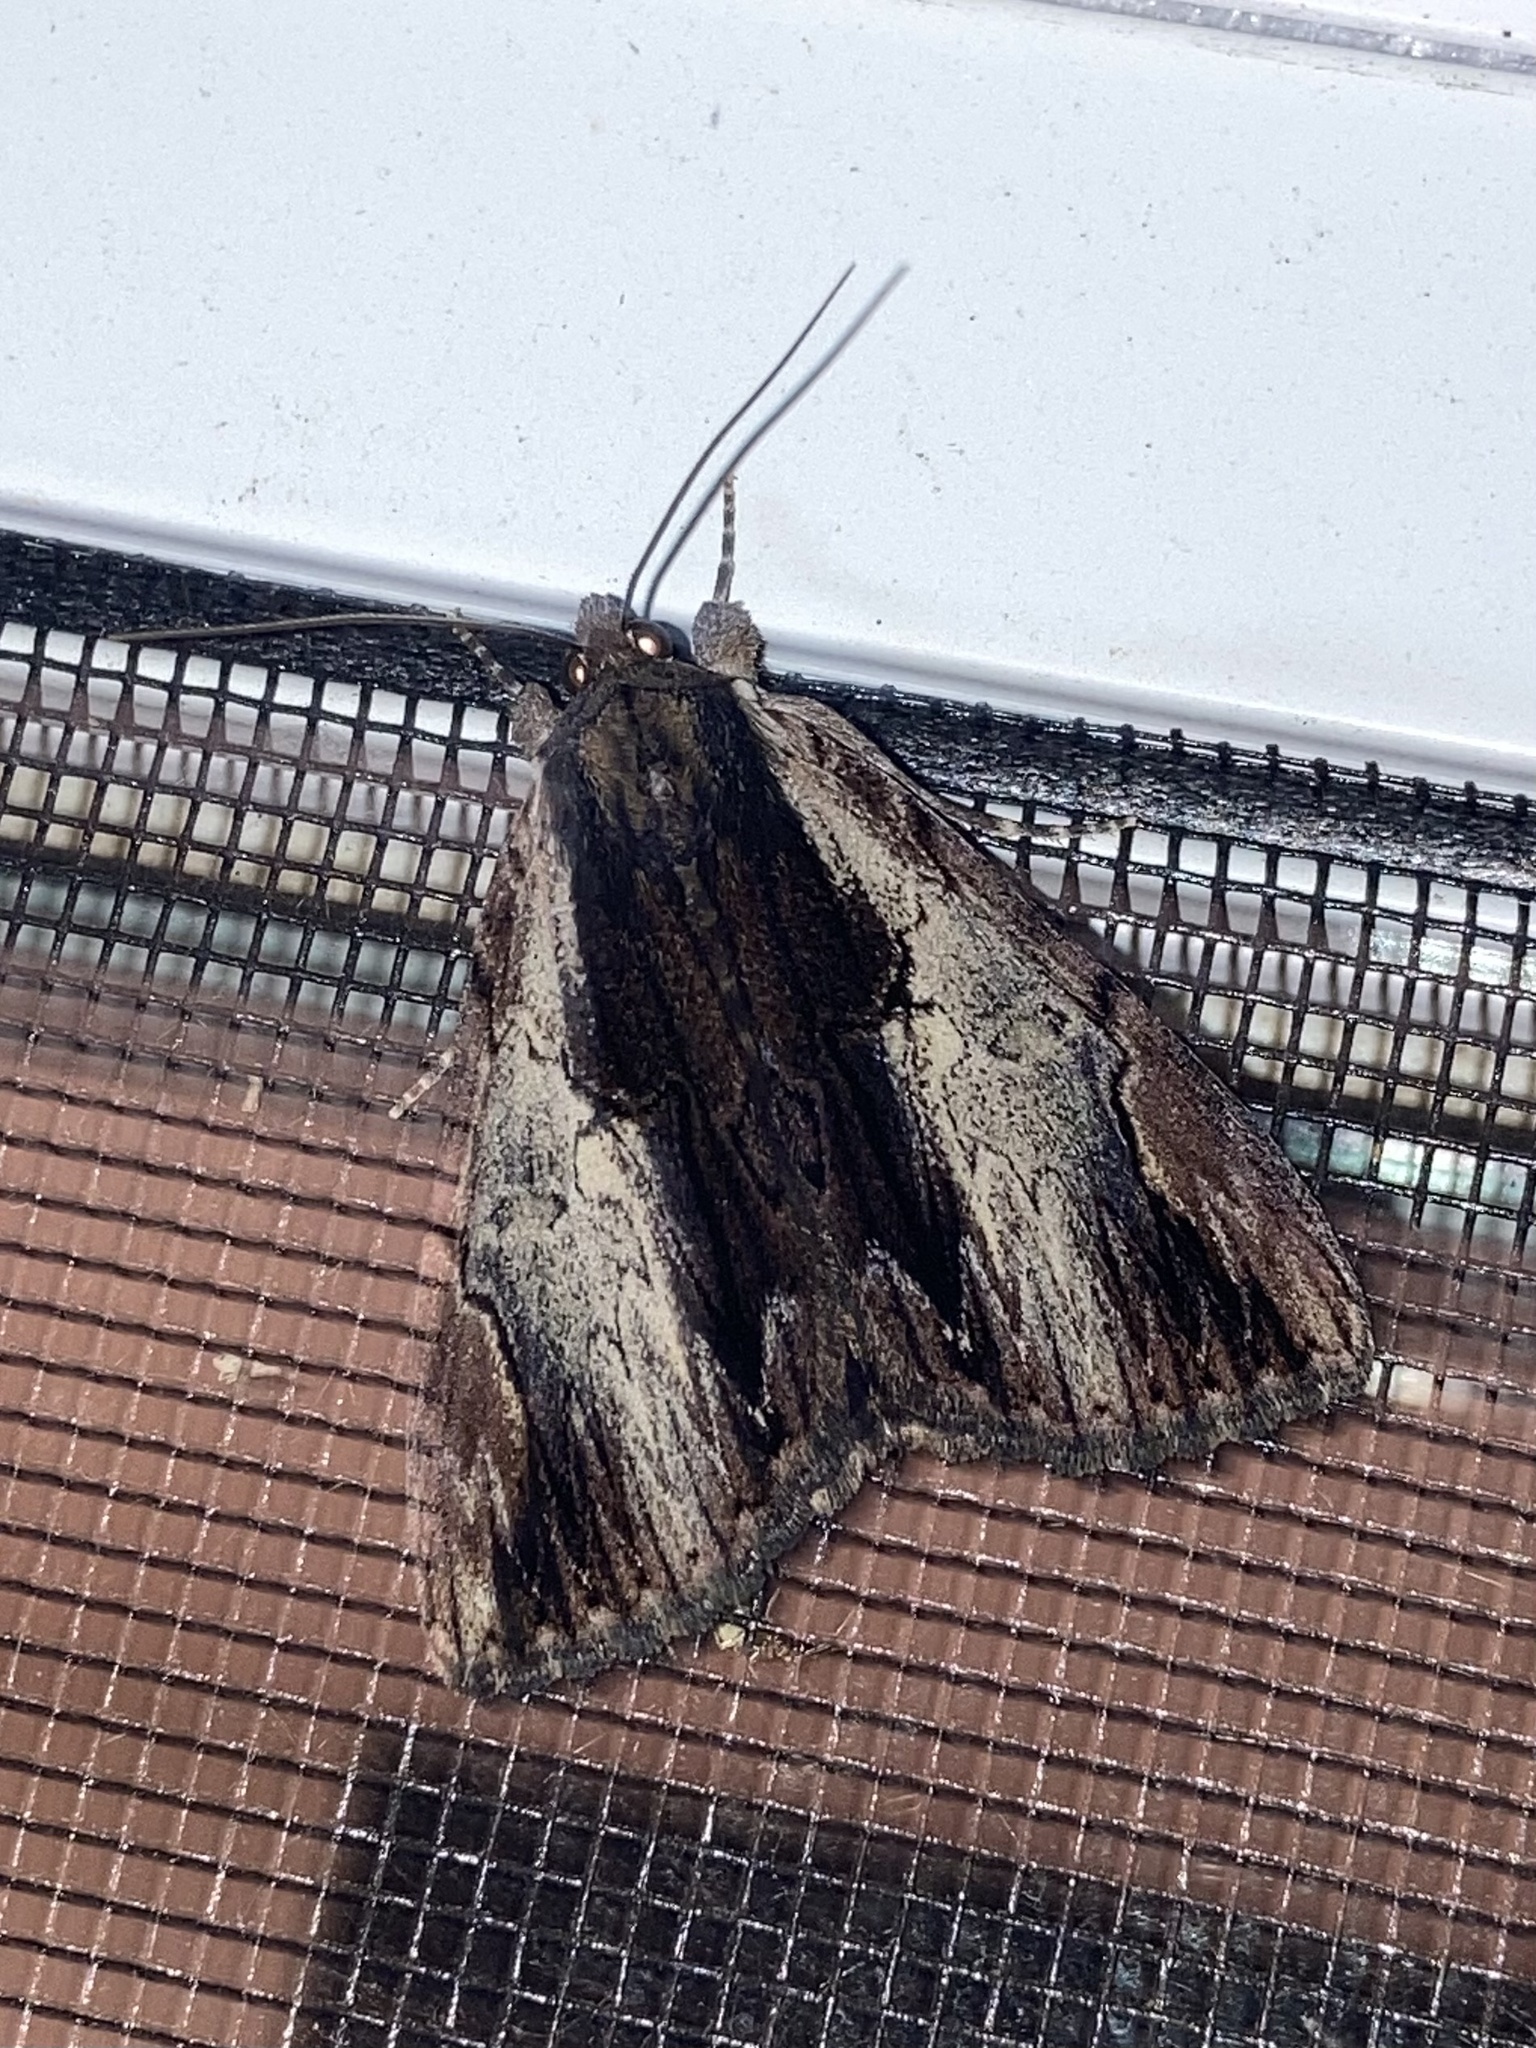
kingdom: Animalia
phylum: Arthropoda
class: Insecta
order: Lepidoptera
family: Erebidae
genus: Catocala
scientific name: Catocala ultronia
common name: Ultronia underwing
